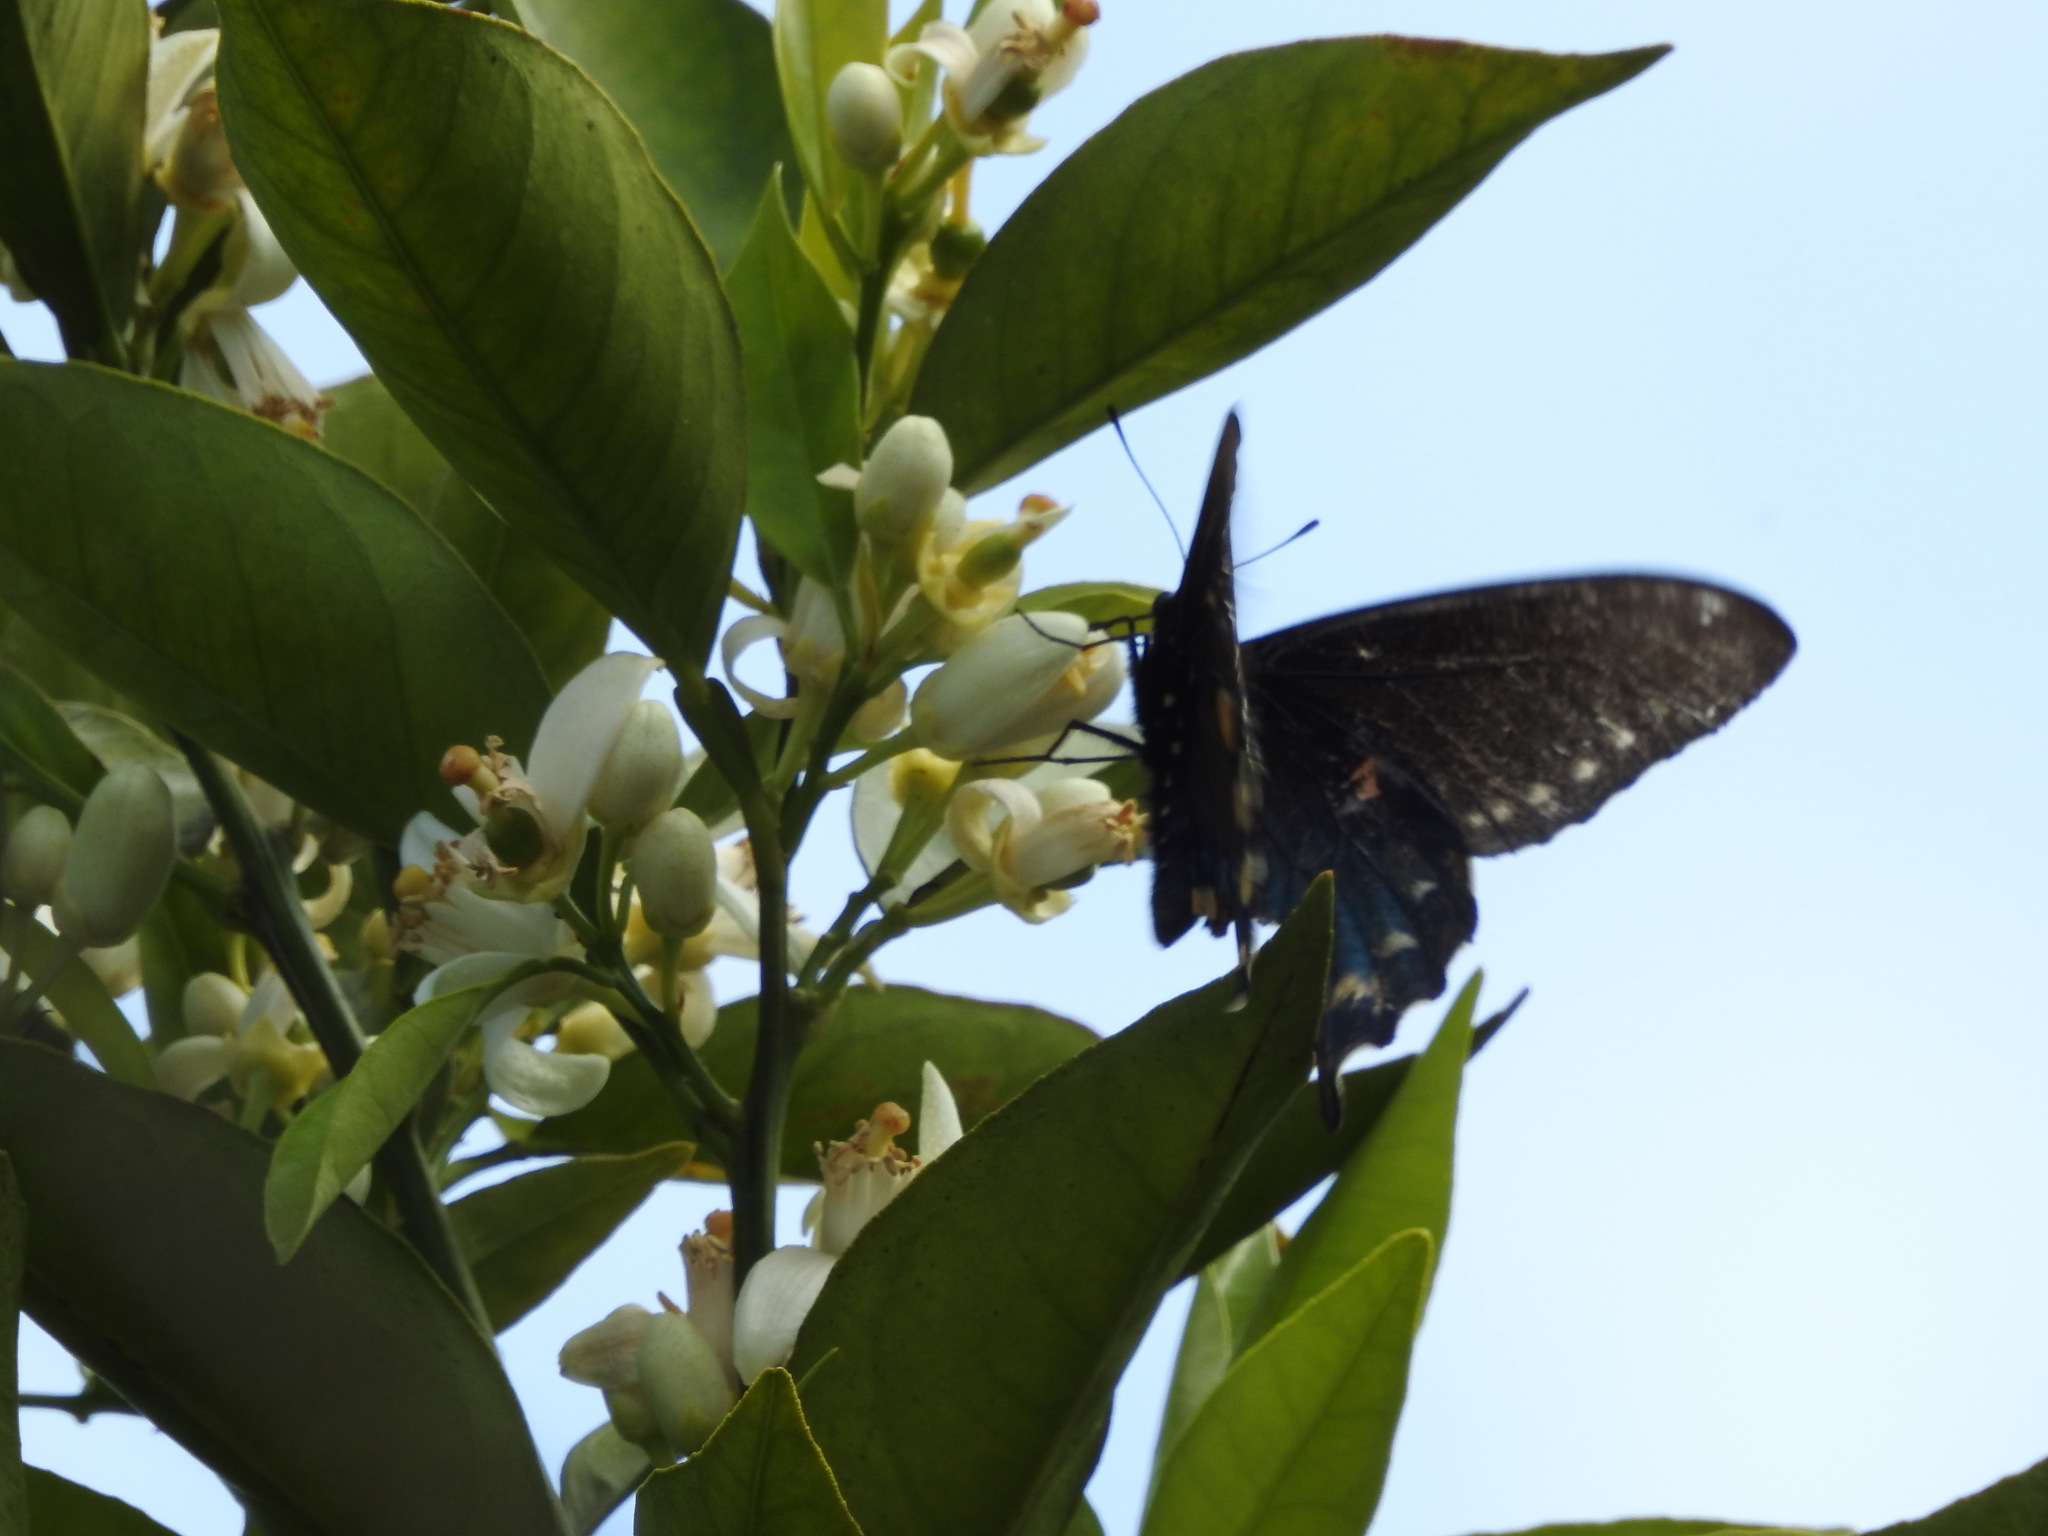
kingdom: Animalia
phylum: Arthropoda
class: Insecta
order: Lepidoptera
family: Papilionidae
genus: Battus
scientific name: Battus philenor
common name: Pipevine swallowtail
